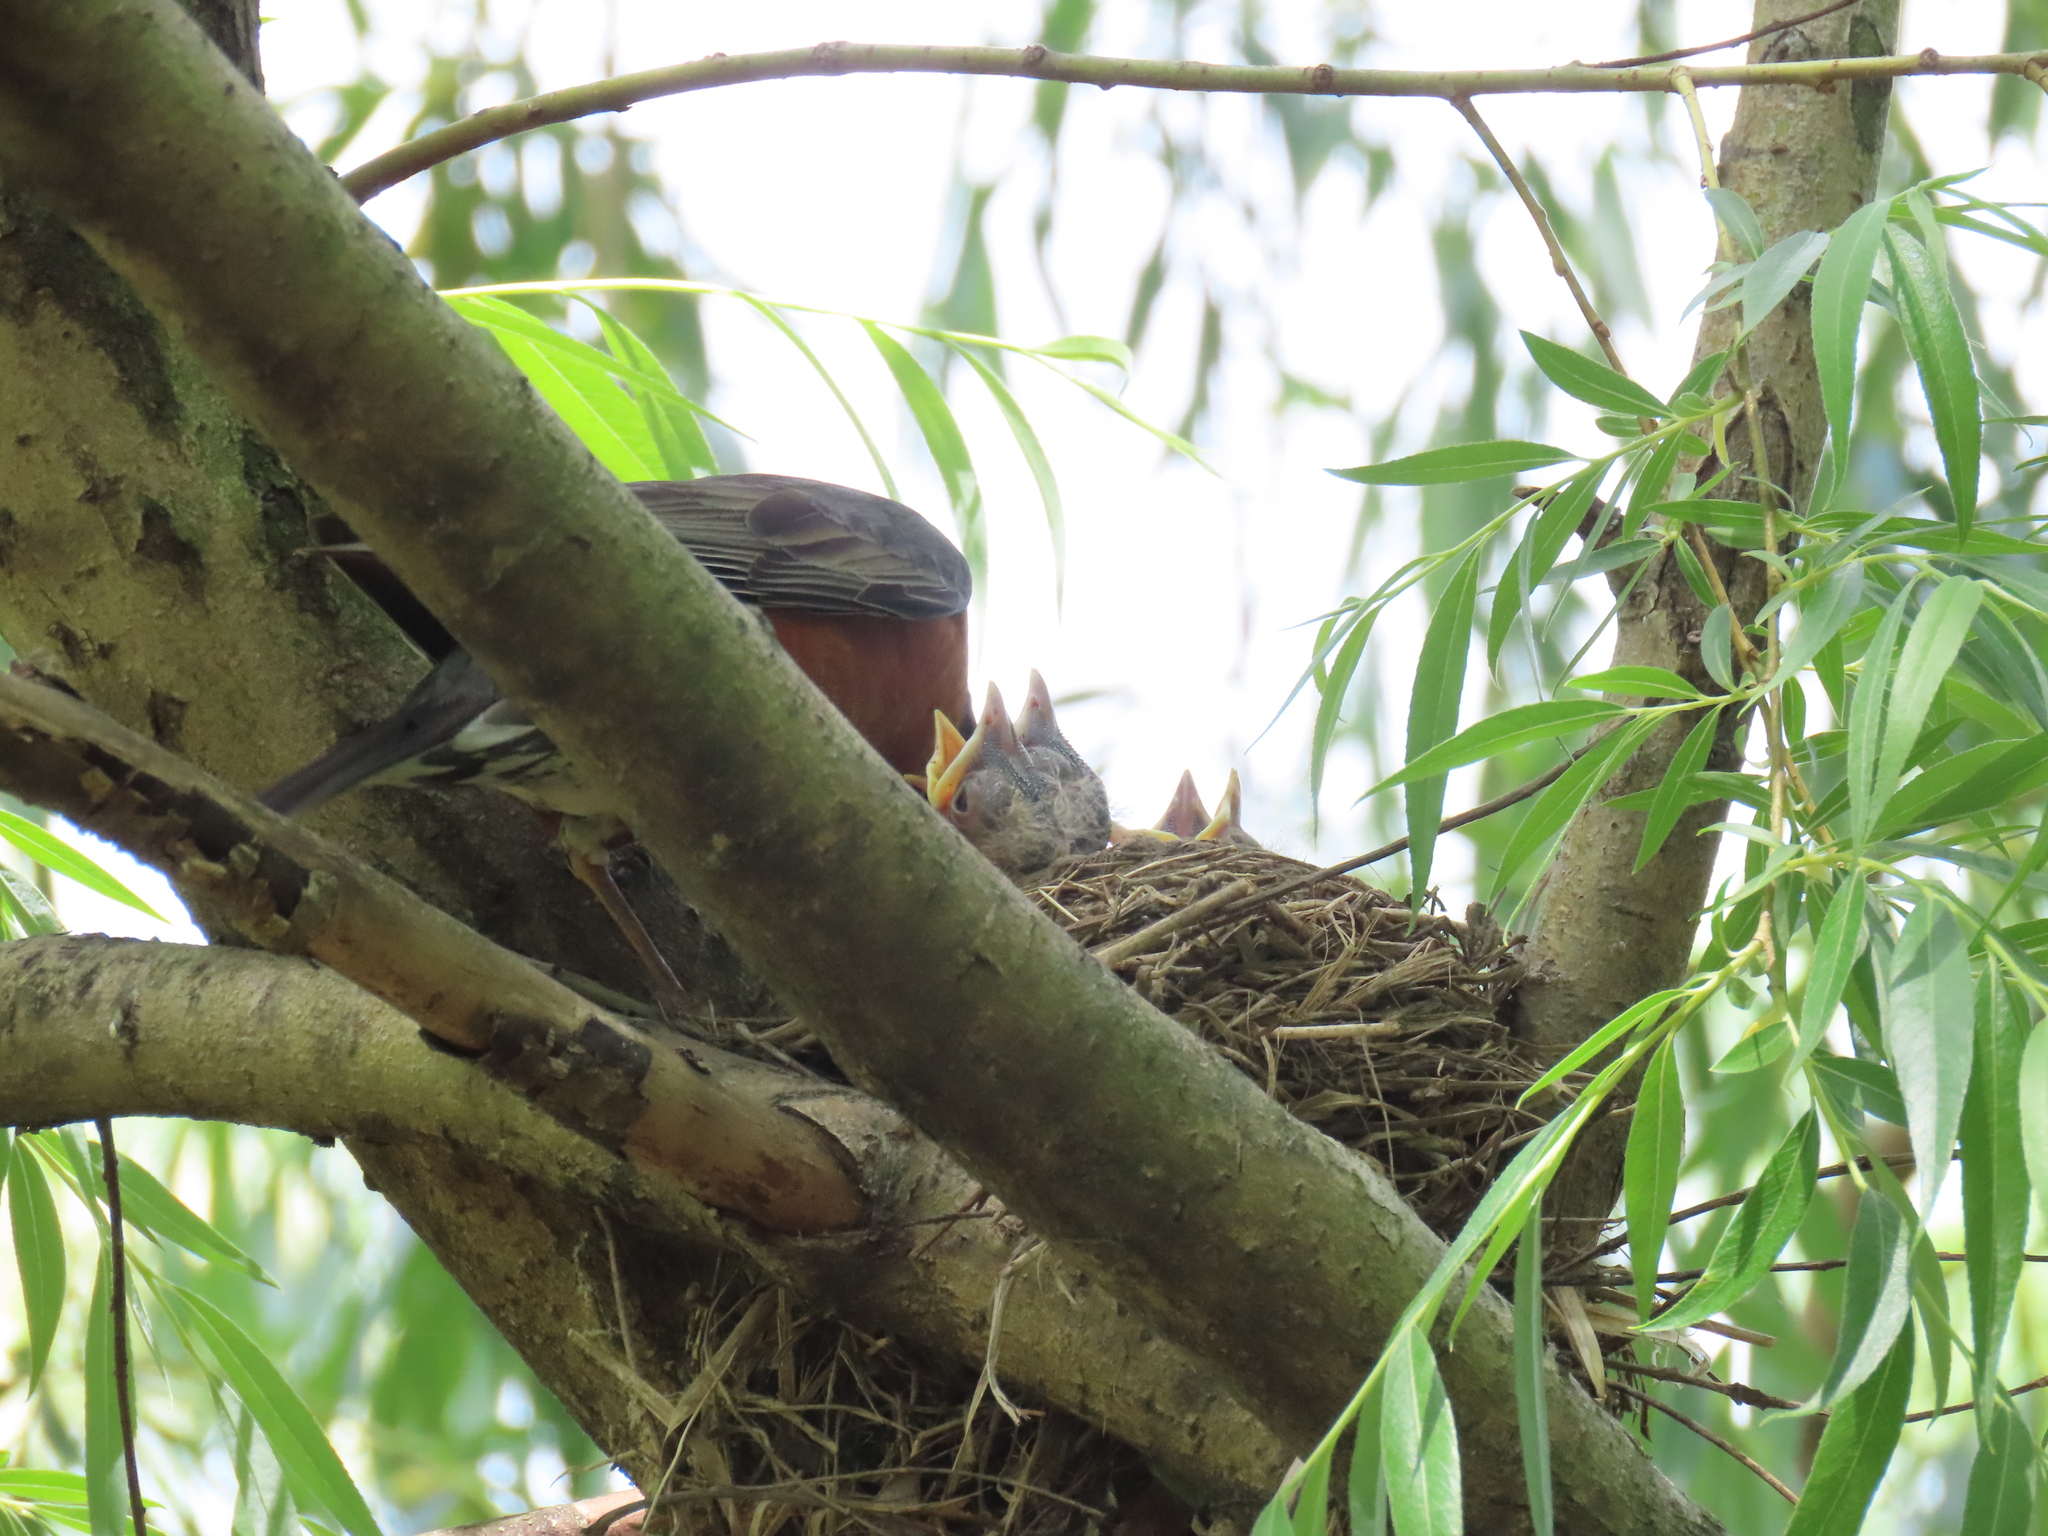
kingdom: Animalia
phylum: Chordata
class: Aves
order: Passeriformes
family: Turdidae
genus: Turdus
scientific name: Turdus migratorius
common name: American robin
